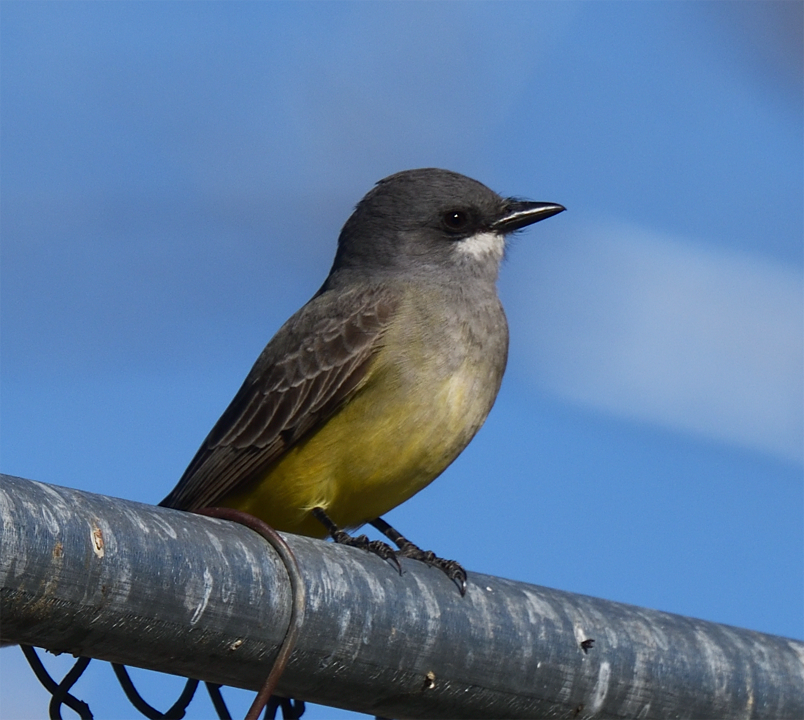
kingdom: Animalia
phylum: Chordata
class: Aves
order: Passeriformes
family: Tyrannidae
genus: Tyrannus
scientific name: Tyrannus vociferans
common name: Cassin's kingbird
